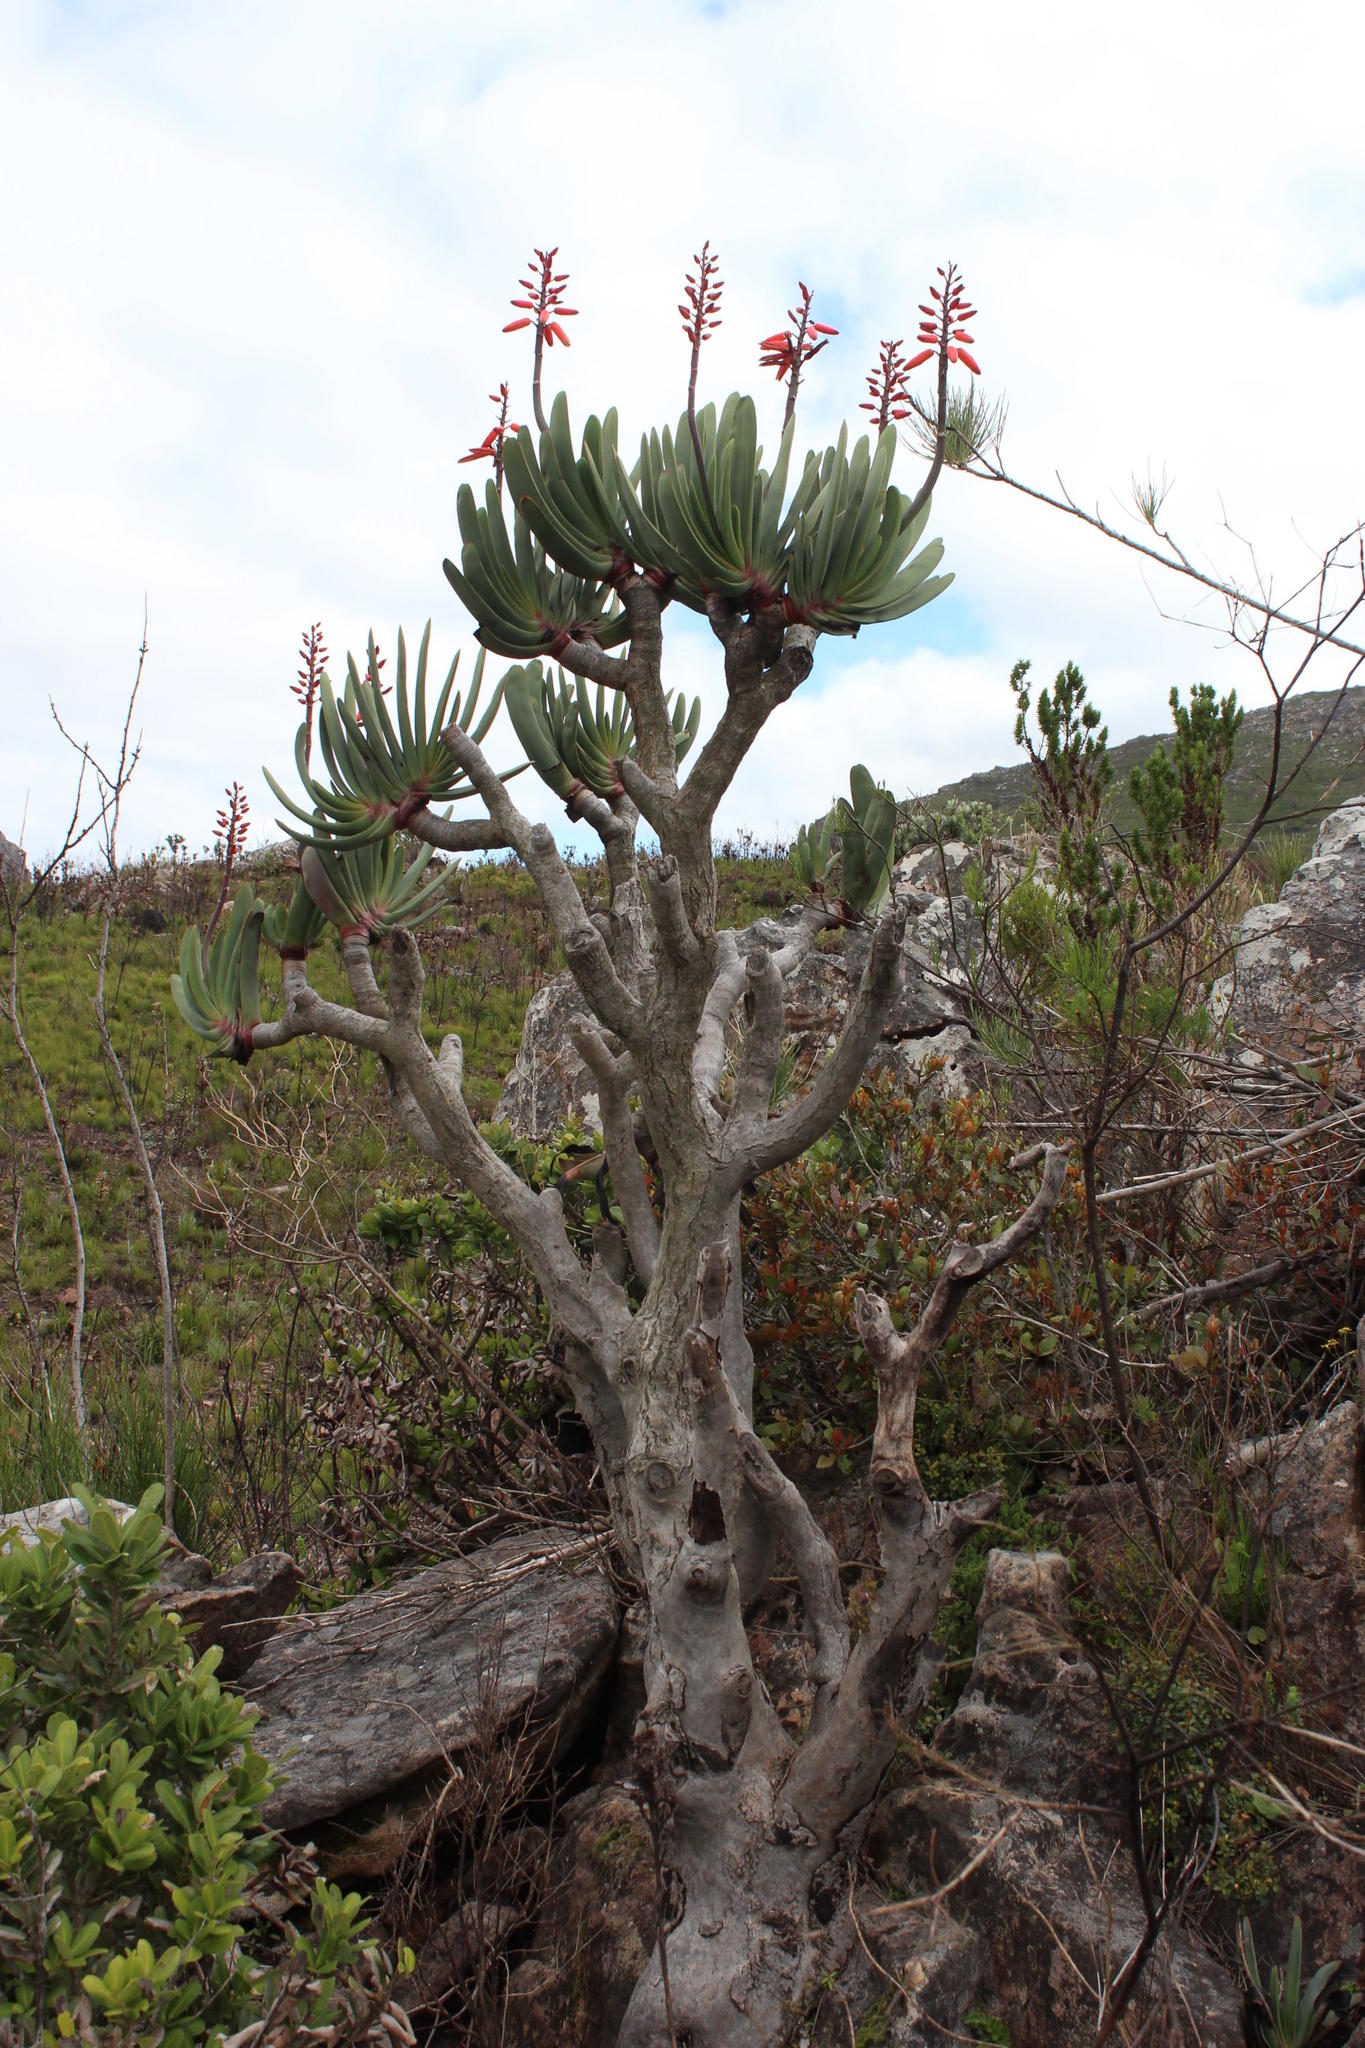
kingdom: Plantae
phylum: Tracheophyta
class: Liliopsida
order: Asparagales
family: Asphodelaceae
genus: Kumara
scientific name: Kumara plicatilis
